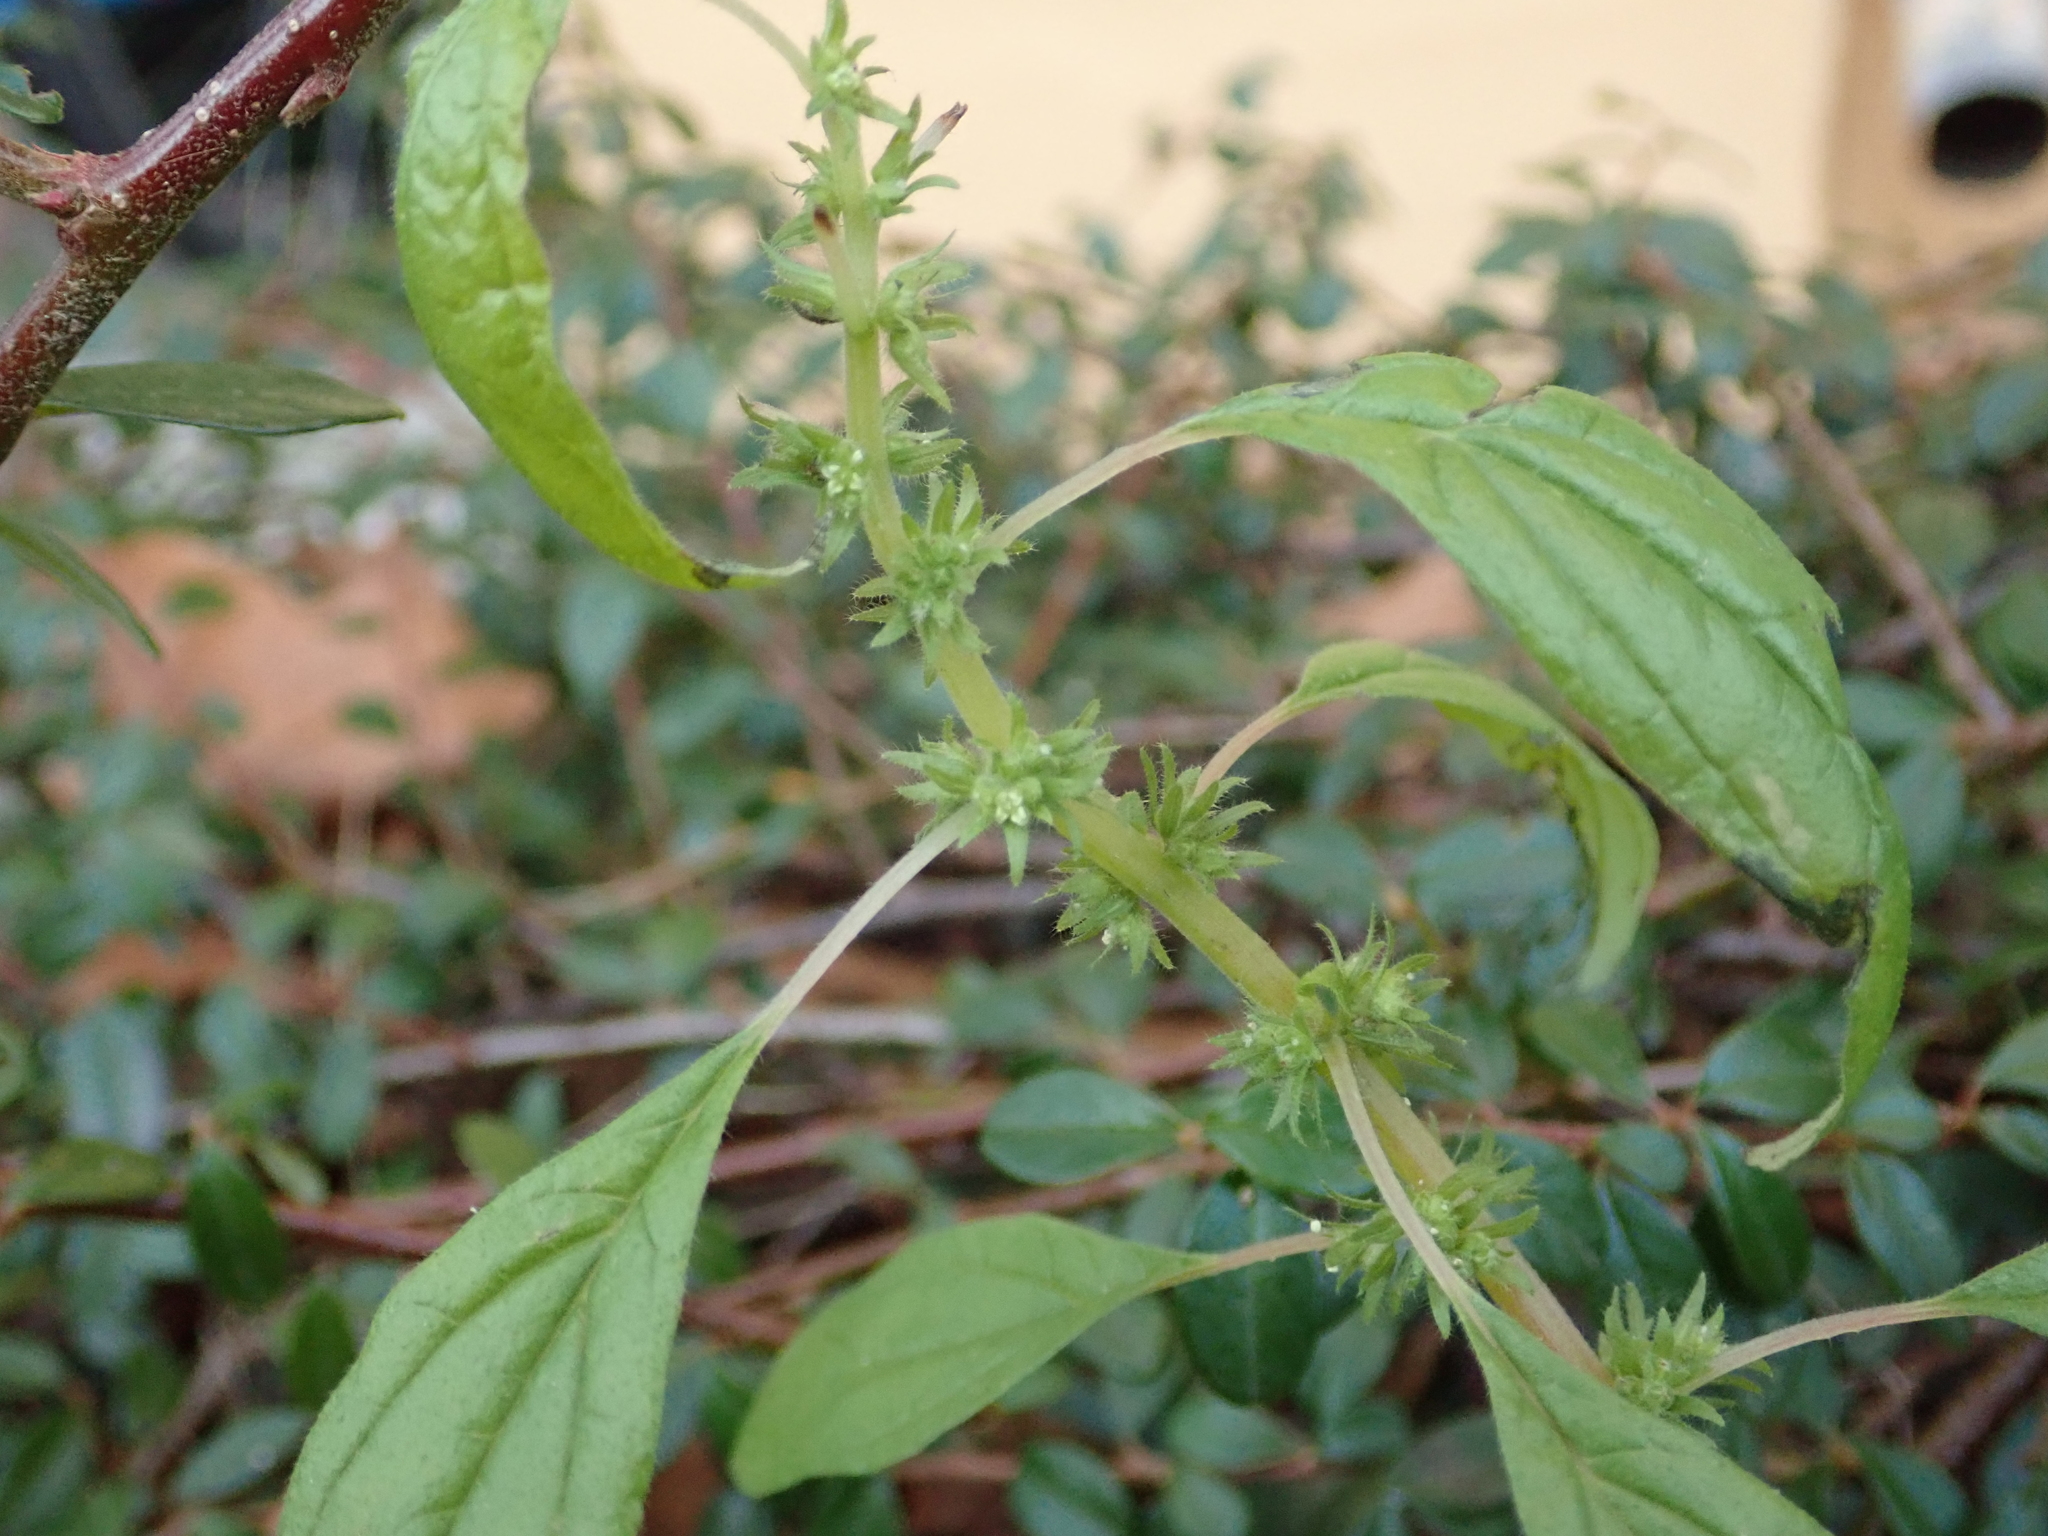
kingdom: Plantae
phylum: Tracheophyta
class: Magnoliopsida
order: Rosales
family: Urticaceae
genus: Parietaria
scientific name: Parietaria pensylvanica
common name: Pennsylvania pellitory
